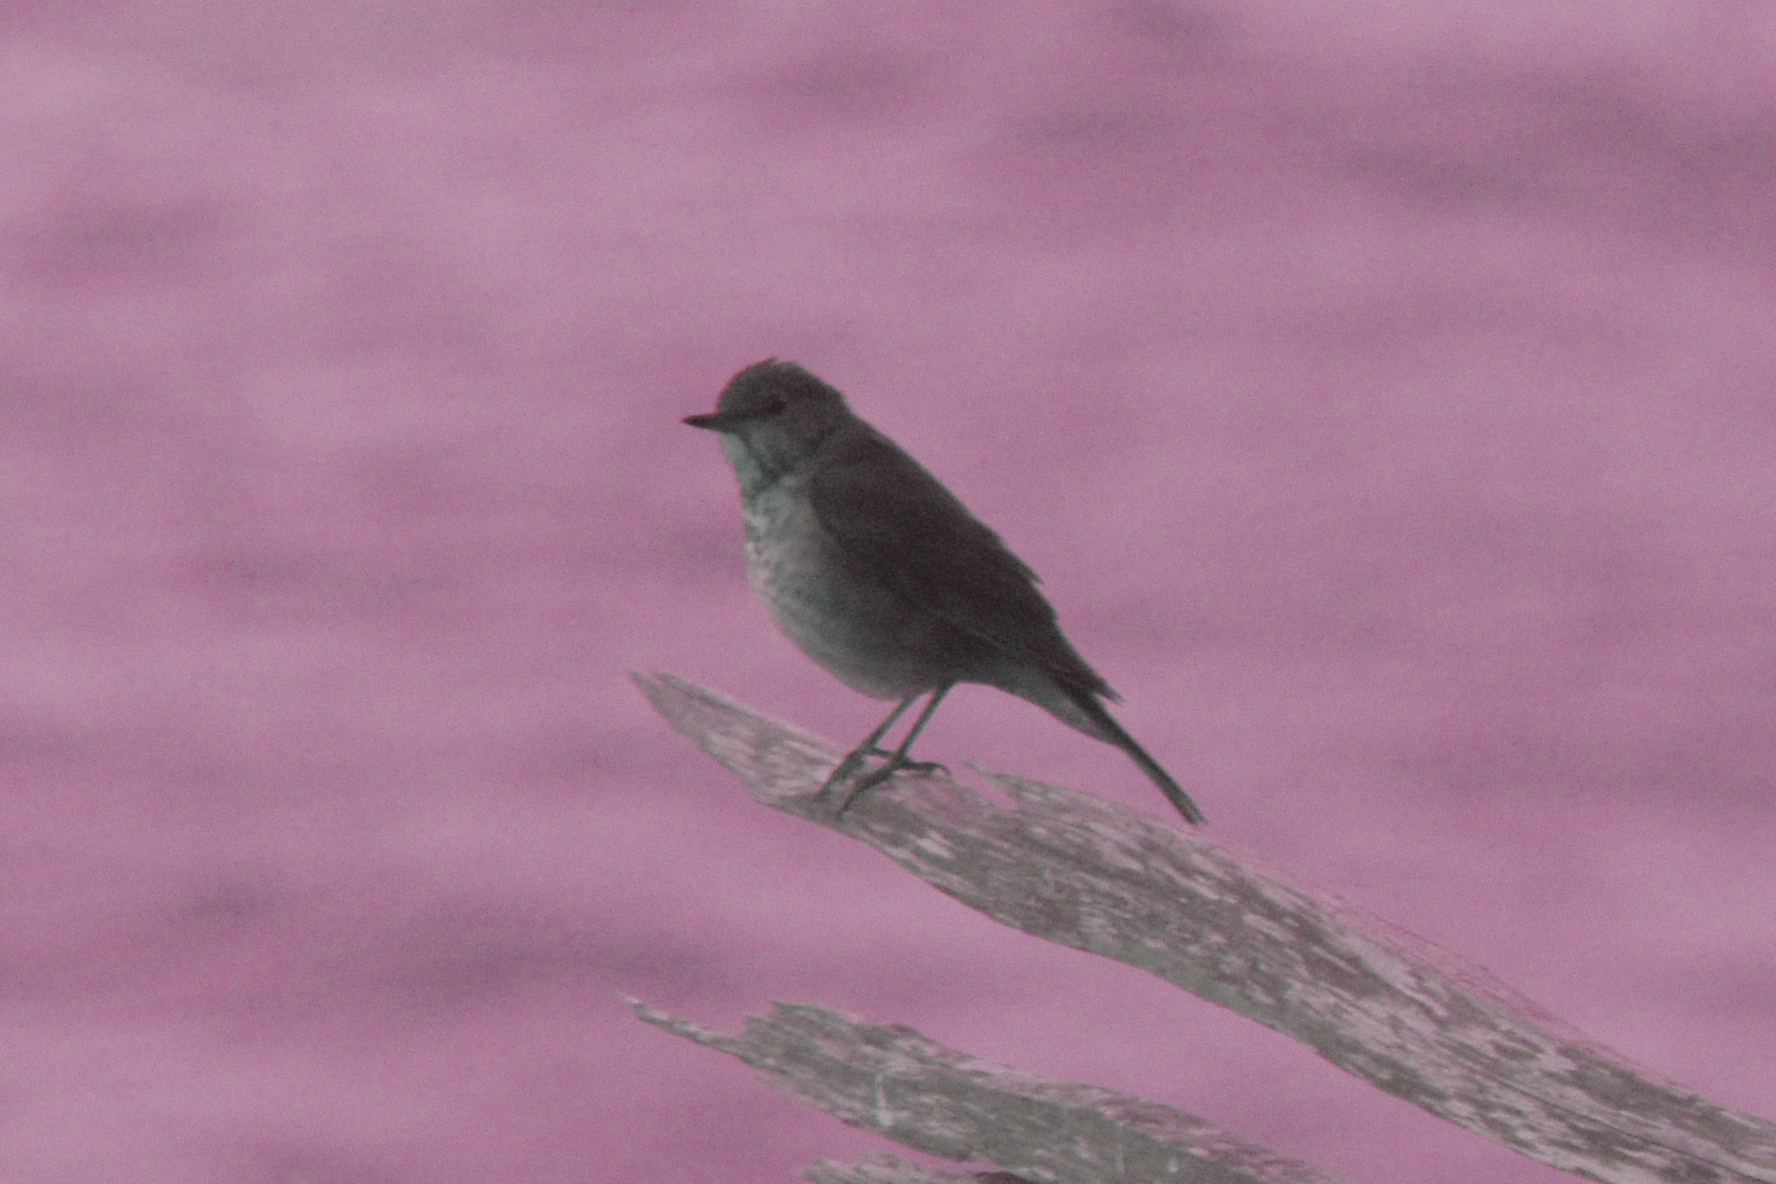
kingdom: Animalia
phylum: Chordata
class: Aves
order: Passeriformes
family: Turdidae
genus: Catharus
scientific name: Catharus ustulatus
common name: Swainson's thrush
